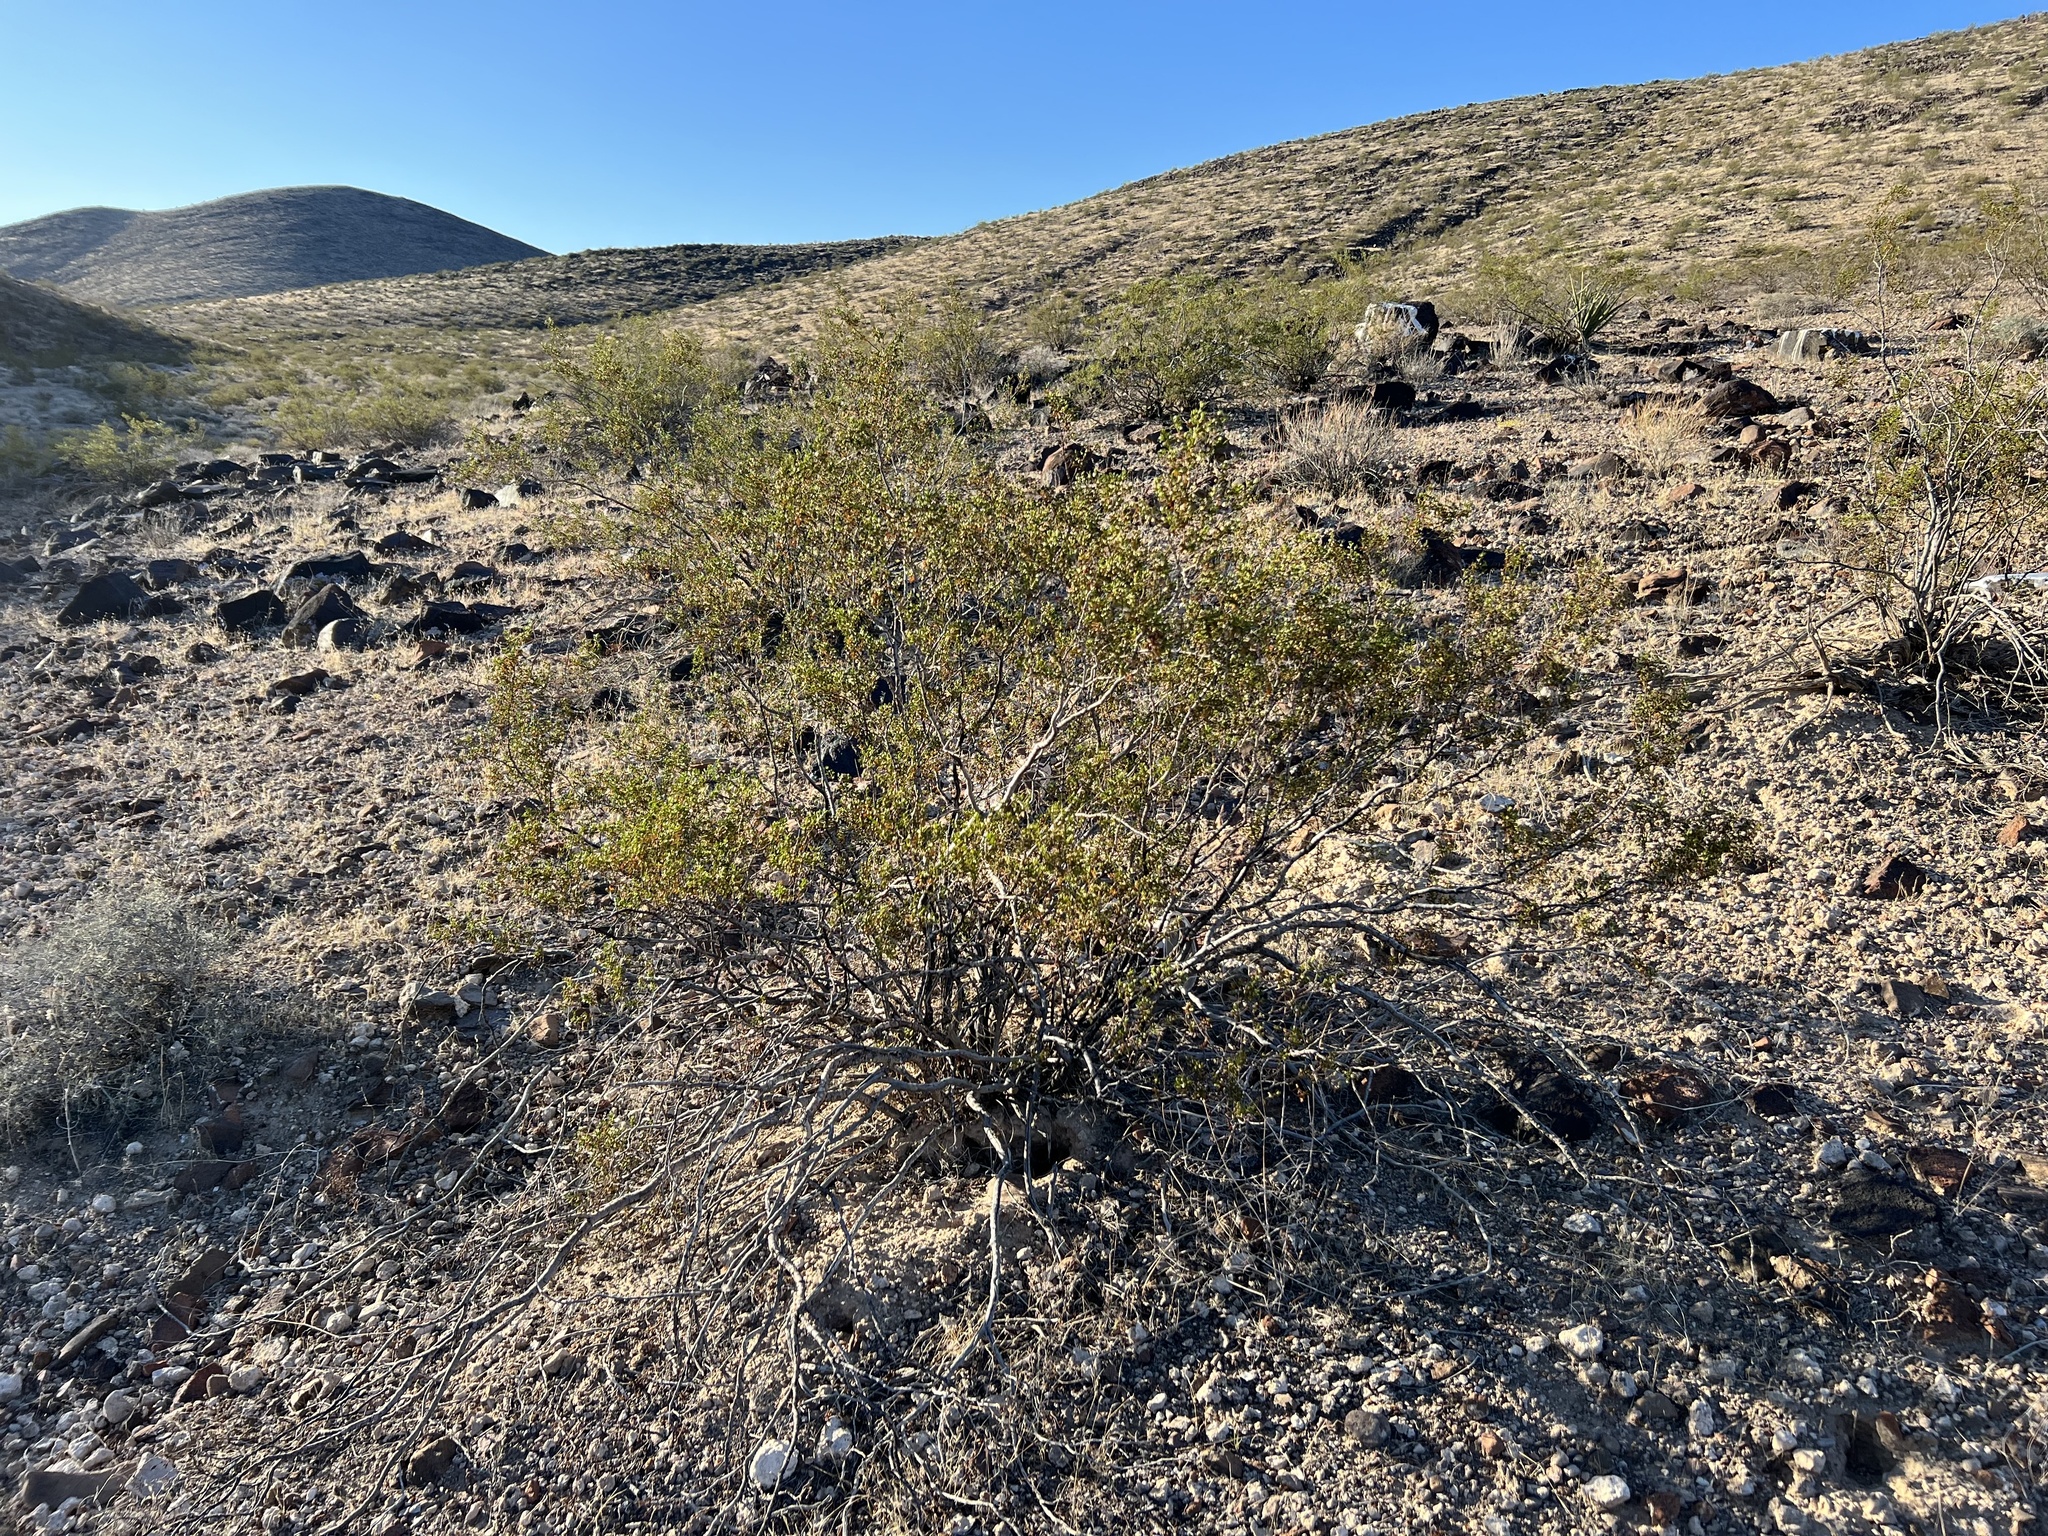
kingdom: Plantae
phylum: Tracheophyta
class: Magnoliopsida
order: Zygophyllales
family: Zygophyllaceae
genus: Larrea
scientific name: Larrea tridentata
